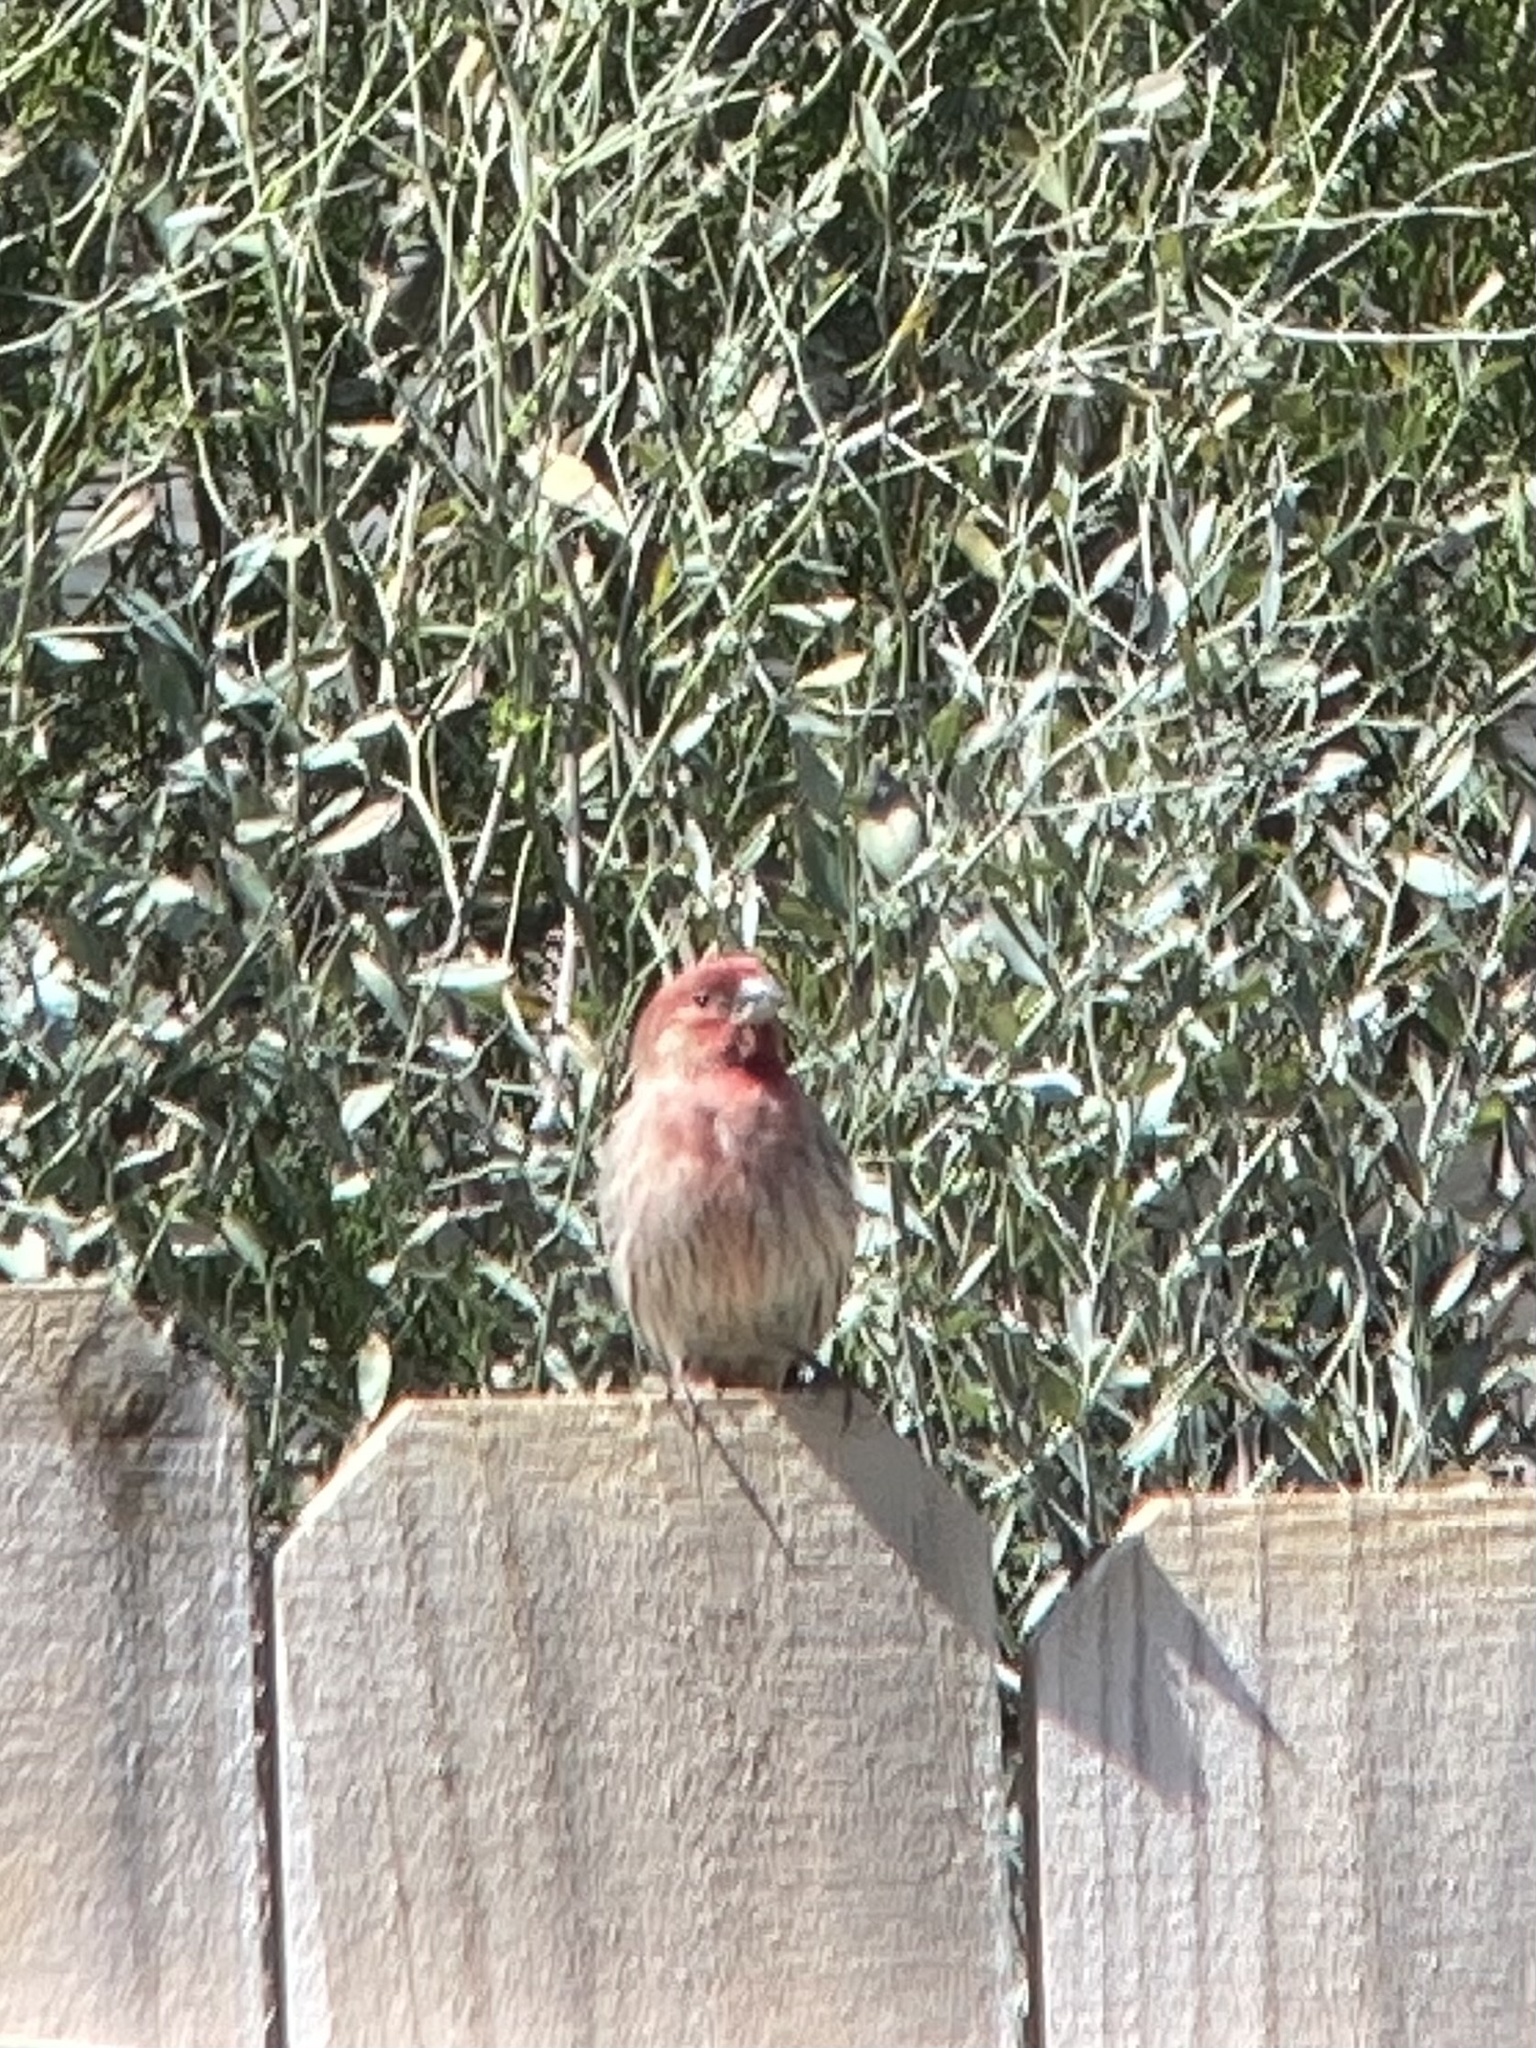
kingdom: Animalia
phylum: Chordata
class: Aves
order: Passeriformes
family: Fringillidae
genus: Haemorhous
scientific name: Haemorhous mexicanus
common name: House finch
